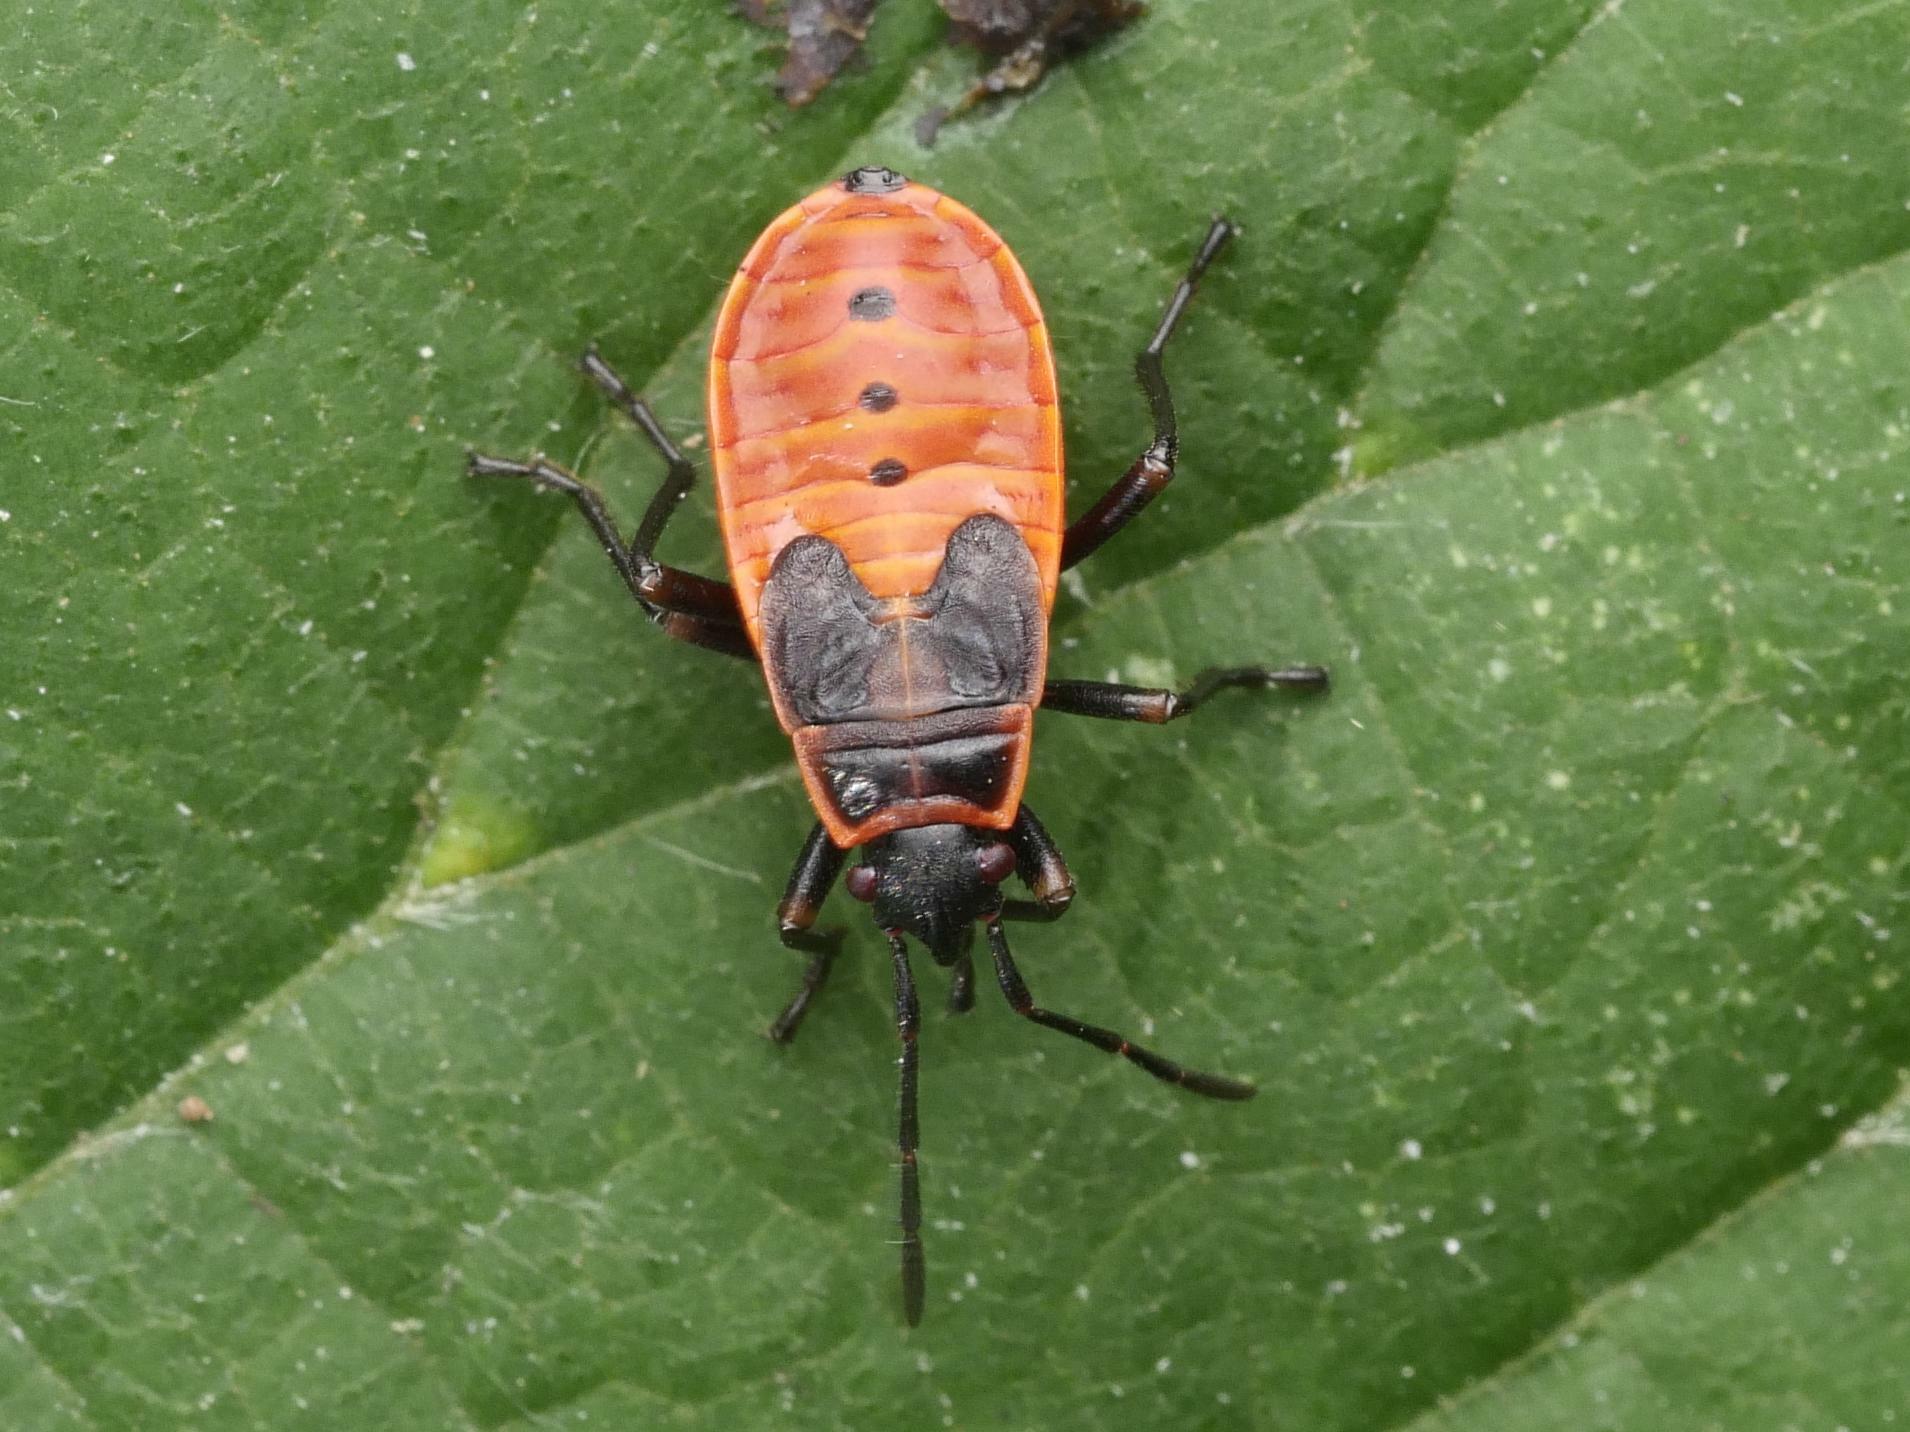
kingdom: Animalia
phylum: Arthropoda
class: Insecta
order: Hemiptera
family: Pyrrhocoridae
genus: Pyrrhocoris
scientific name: Pyrrhocoris apterus
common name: Firebug
